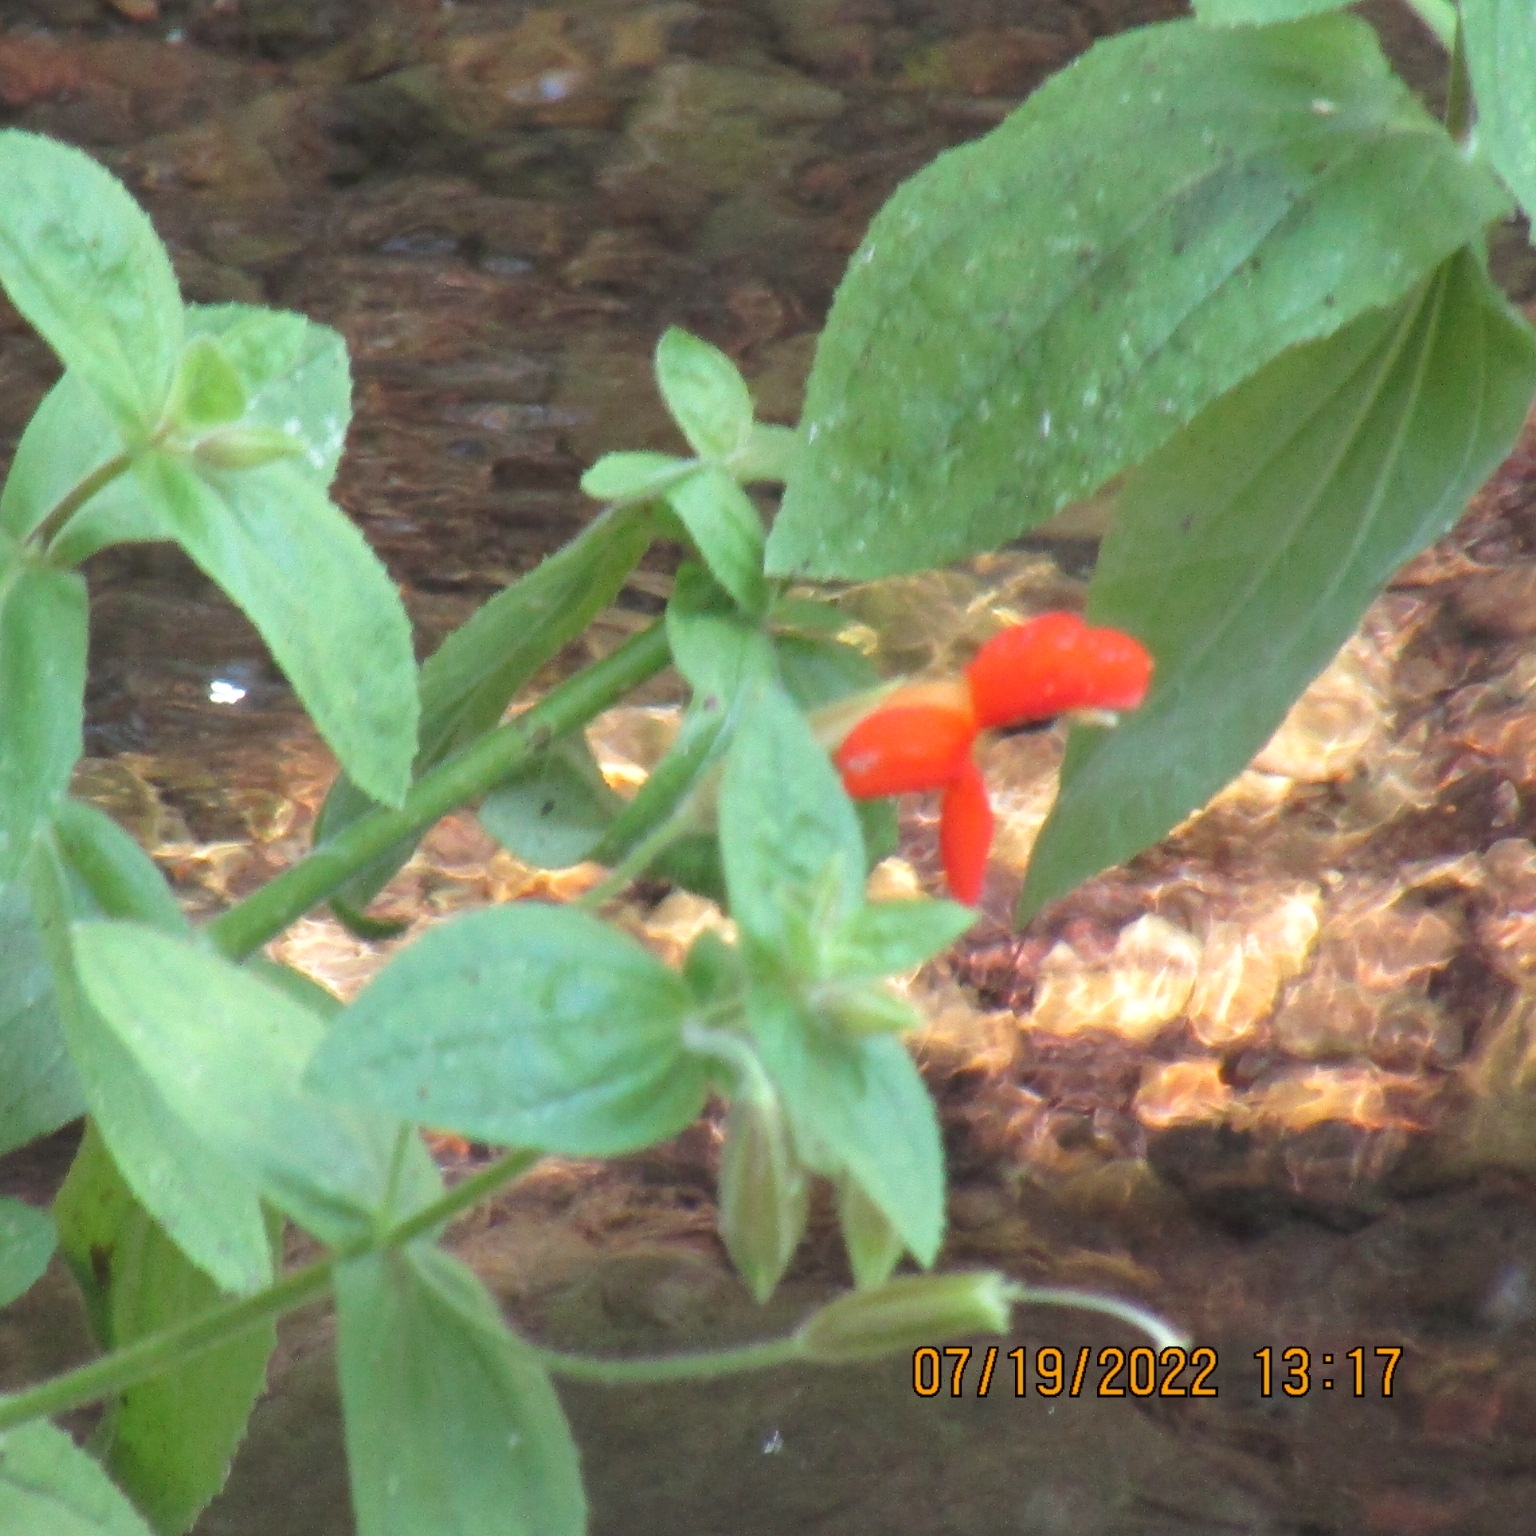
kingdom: Plantae
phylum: Tracheophyta
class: Magnoliopsida
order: Lamiales
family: Phrymaceae
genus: Erythranthe
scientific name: Erythranthe cardinalis
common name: Scarlet monkey-flower
